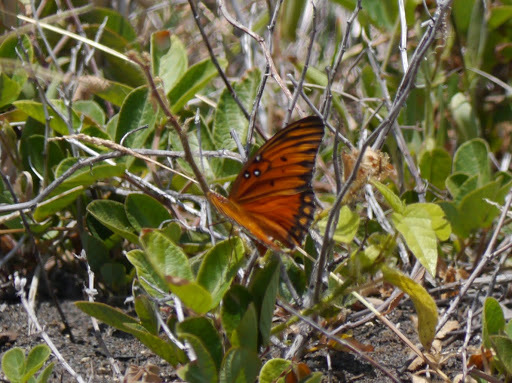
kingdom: Animalia
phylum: Arthropoda
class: Insecta
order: Lepidoptera
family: Nymphalidae
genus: Dione
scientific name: Dione vanillae
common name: Gulf fritillary
